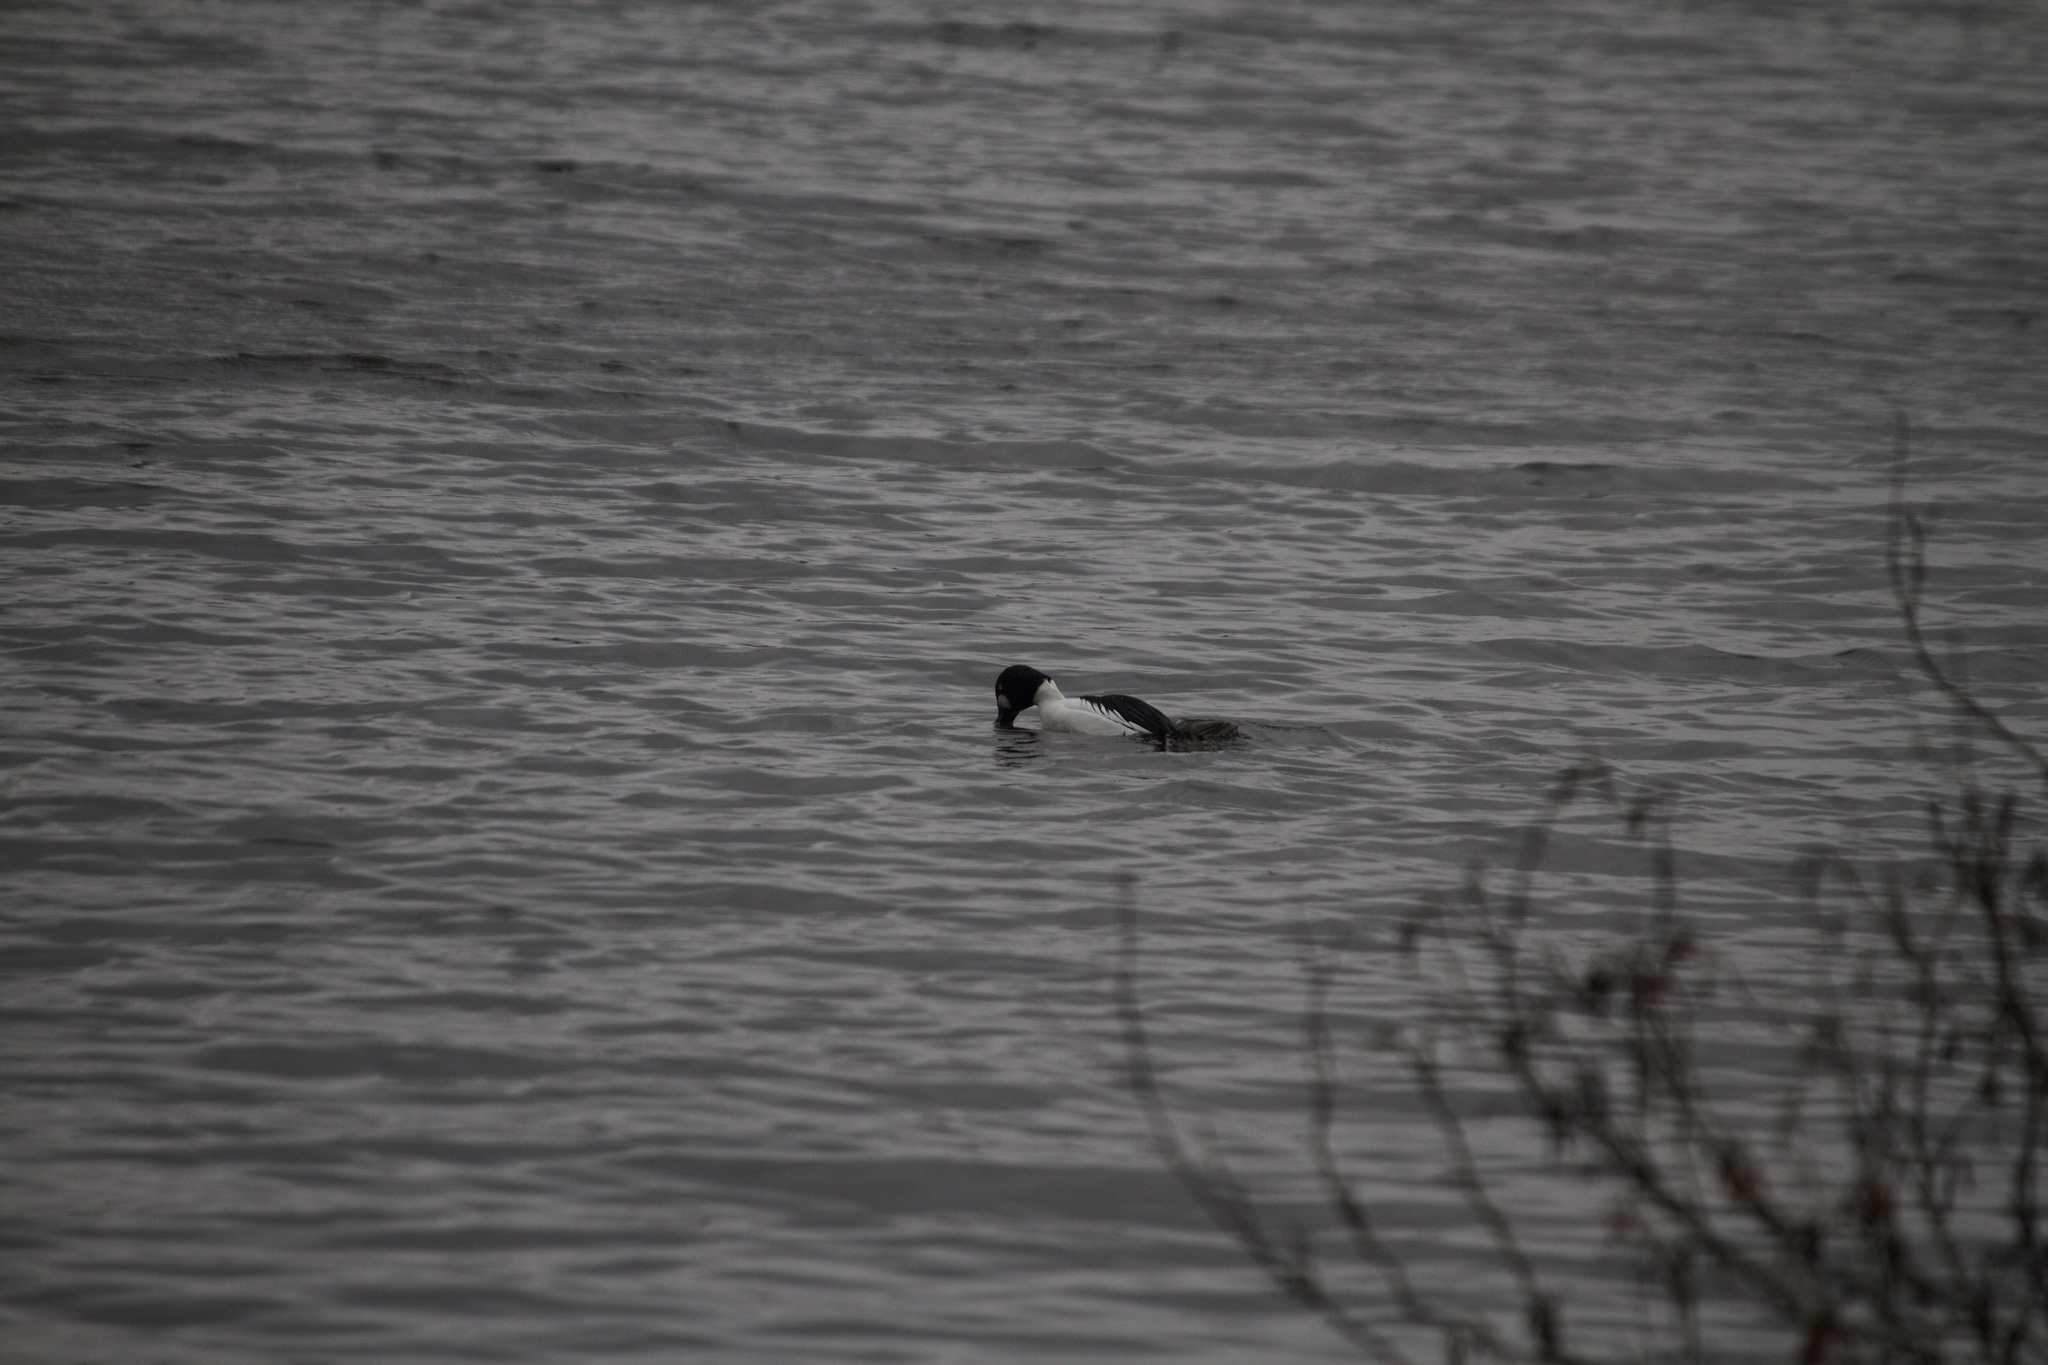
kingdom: Animalia
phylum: Chordata
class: Aves
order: Anseriformes
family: Anatidae
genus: Bucephala
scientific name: Bucephala clangula
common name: Common goldeneye
